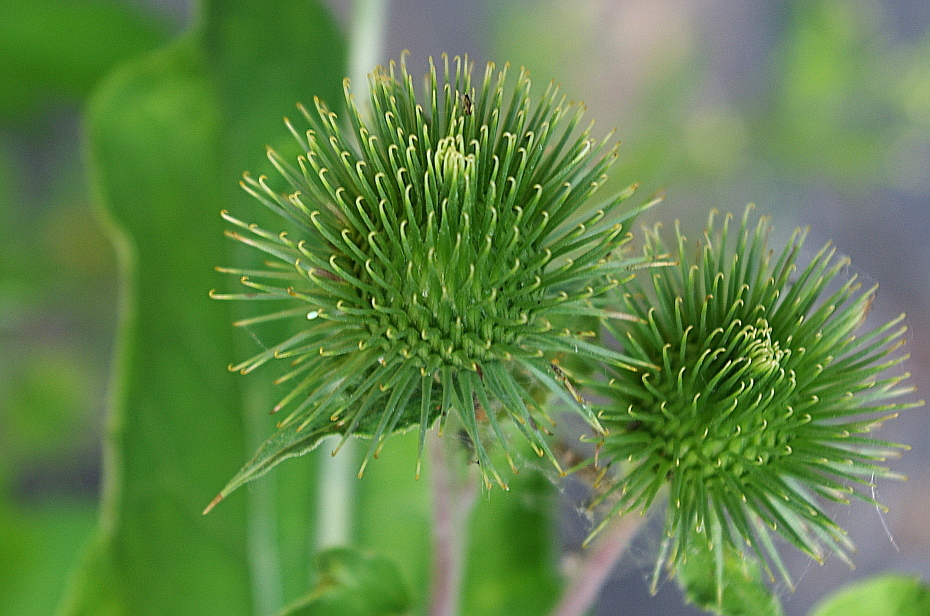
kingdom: Plantae
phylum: Tracheophyta
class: Magnoliopsida
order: Asterales
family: Asteraceae
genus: Arctium
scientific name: Arctium lappa
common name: Greater burdock
